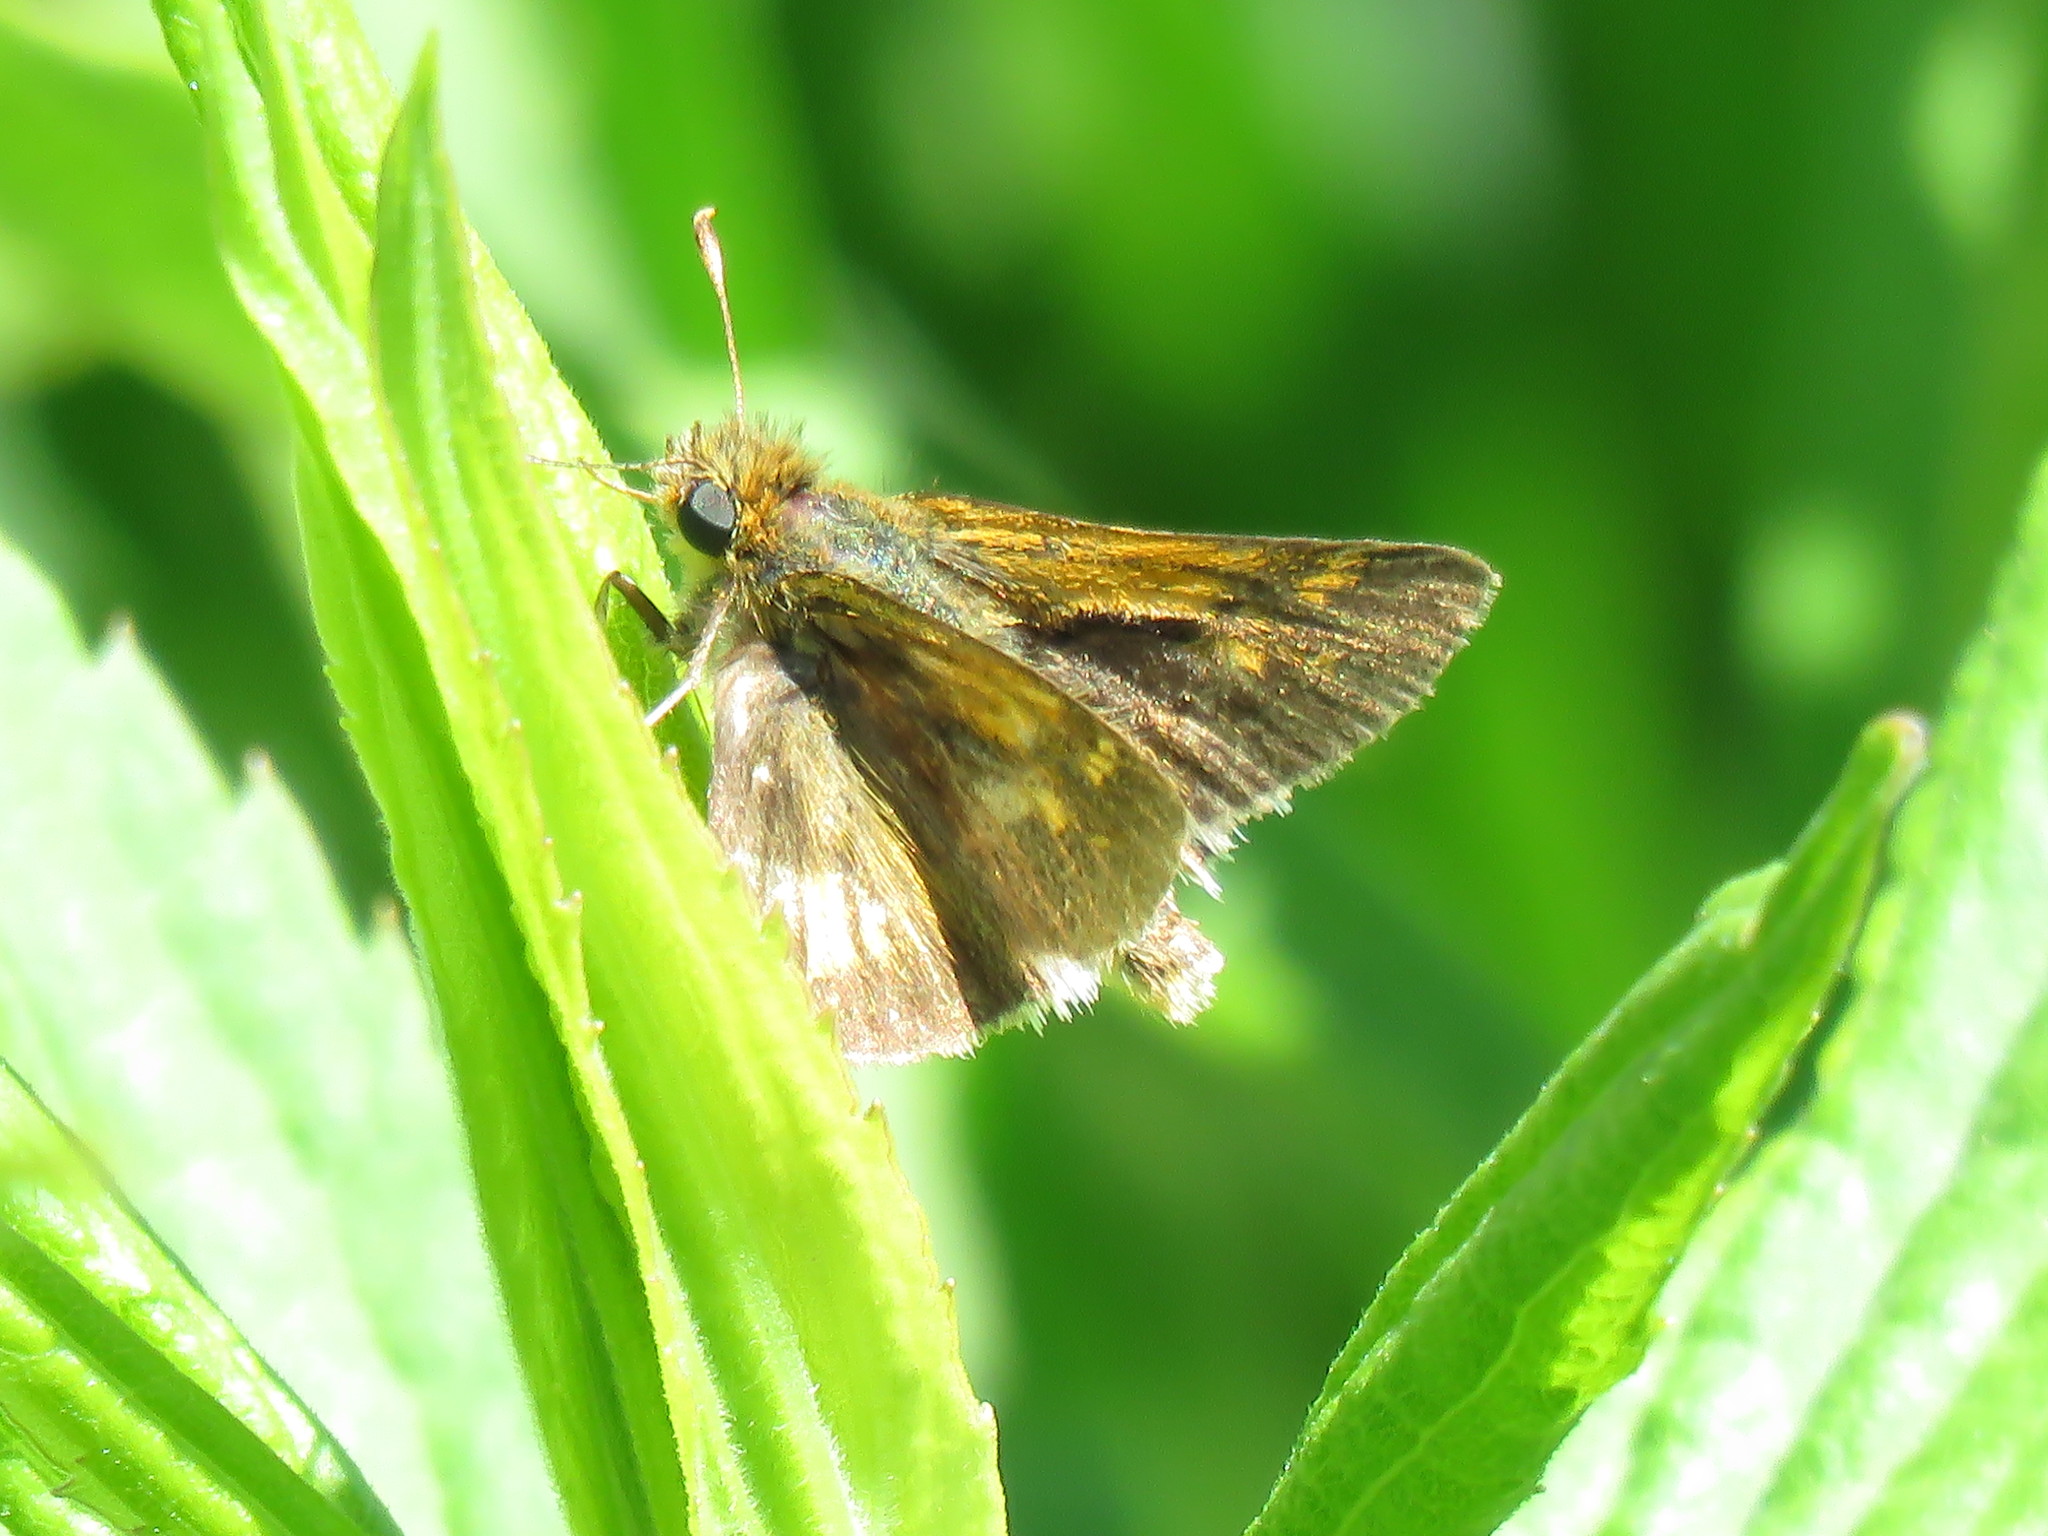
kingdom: Animalia
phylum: Arthropoda
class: Insecta
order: Lepidoptera
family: Hesperiidae
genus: Polites
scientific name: Polites coras
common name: Peck's skipper
